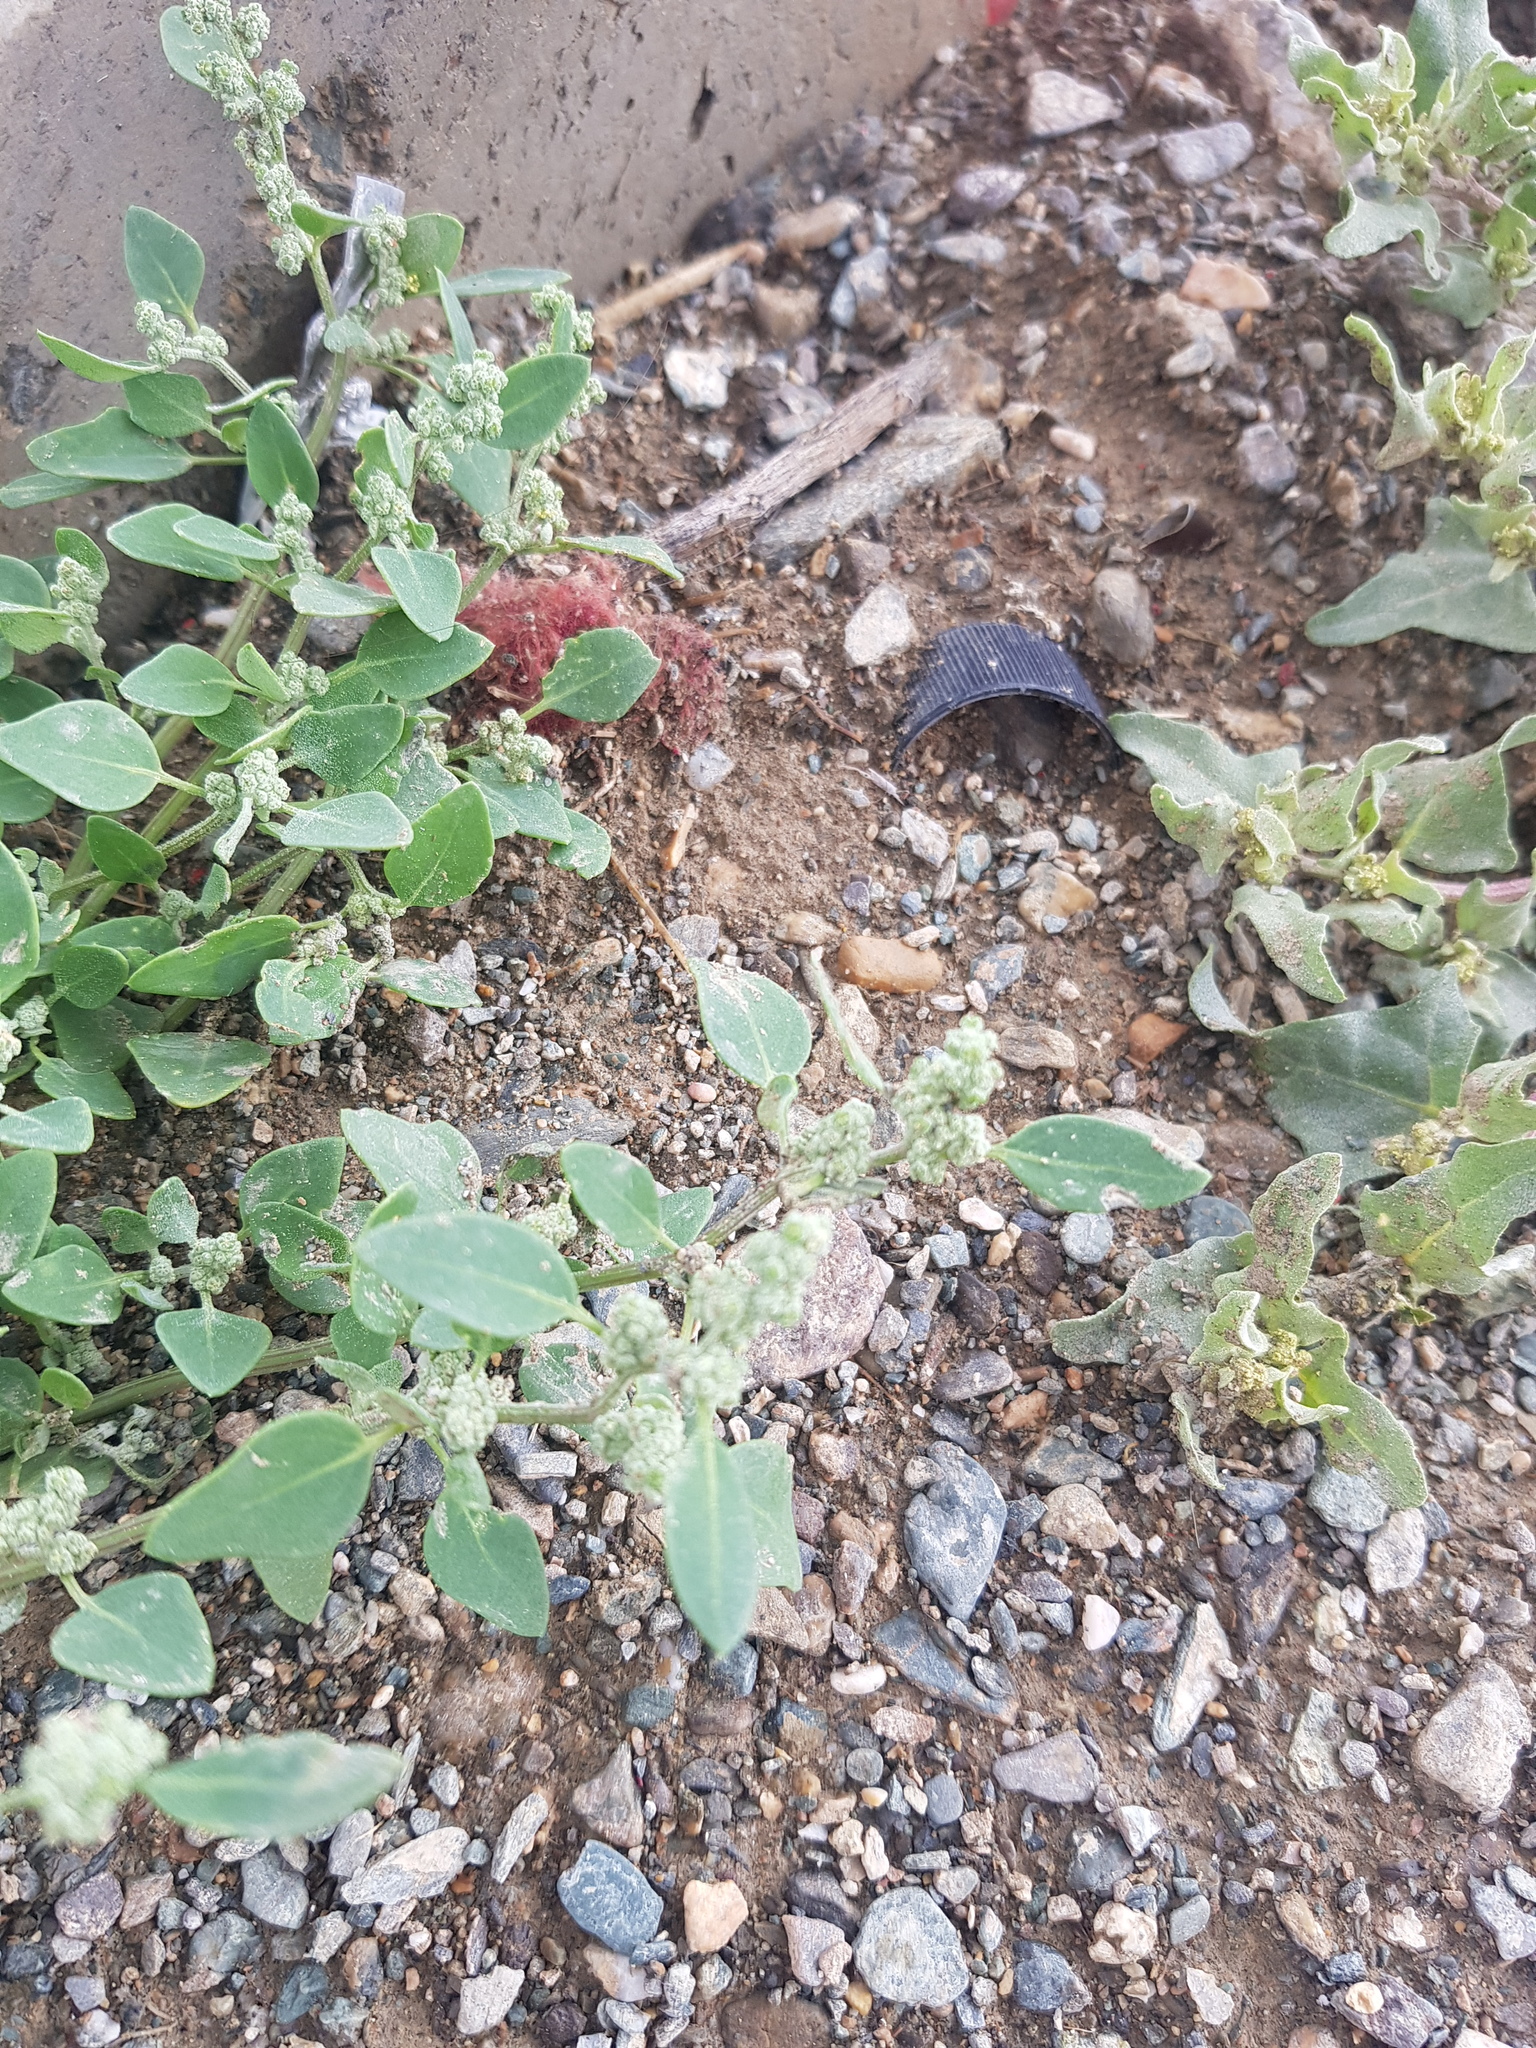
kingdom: Plantae
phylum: Tracheophyta
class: Magnoliopsida
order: Caryophyllales
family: Amaranthaceae
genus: Chenopodium
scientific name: Chenopodium album
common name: Fat-hen
